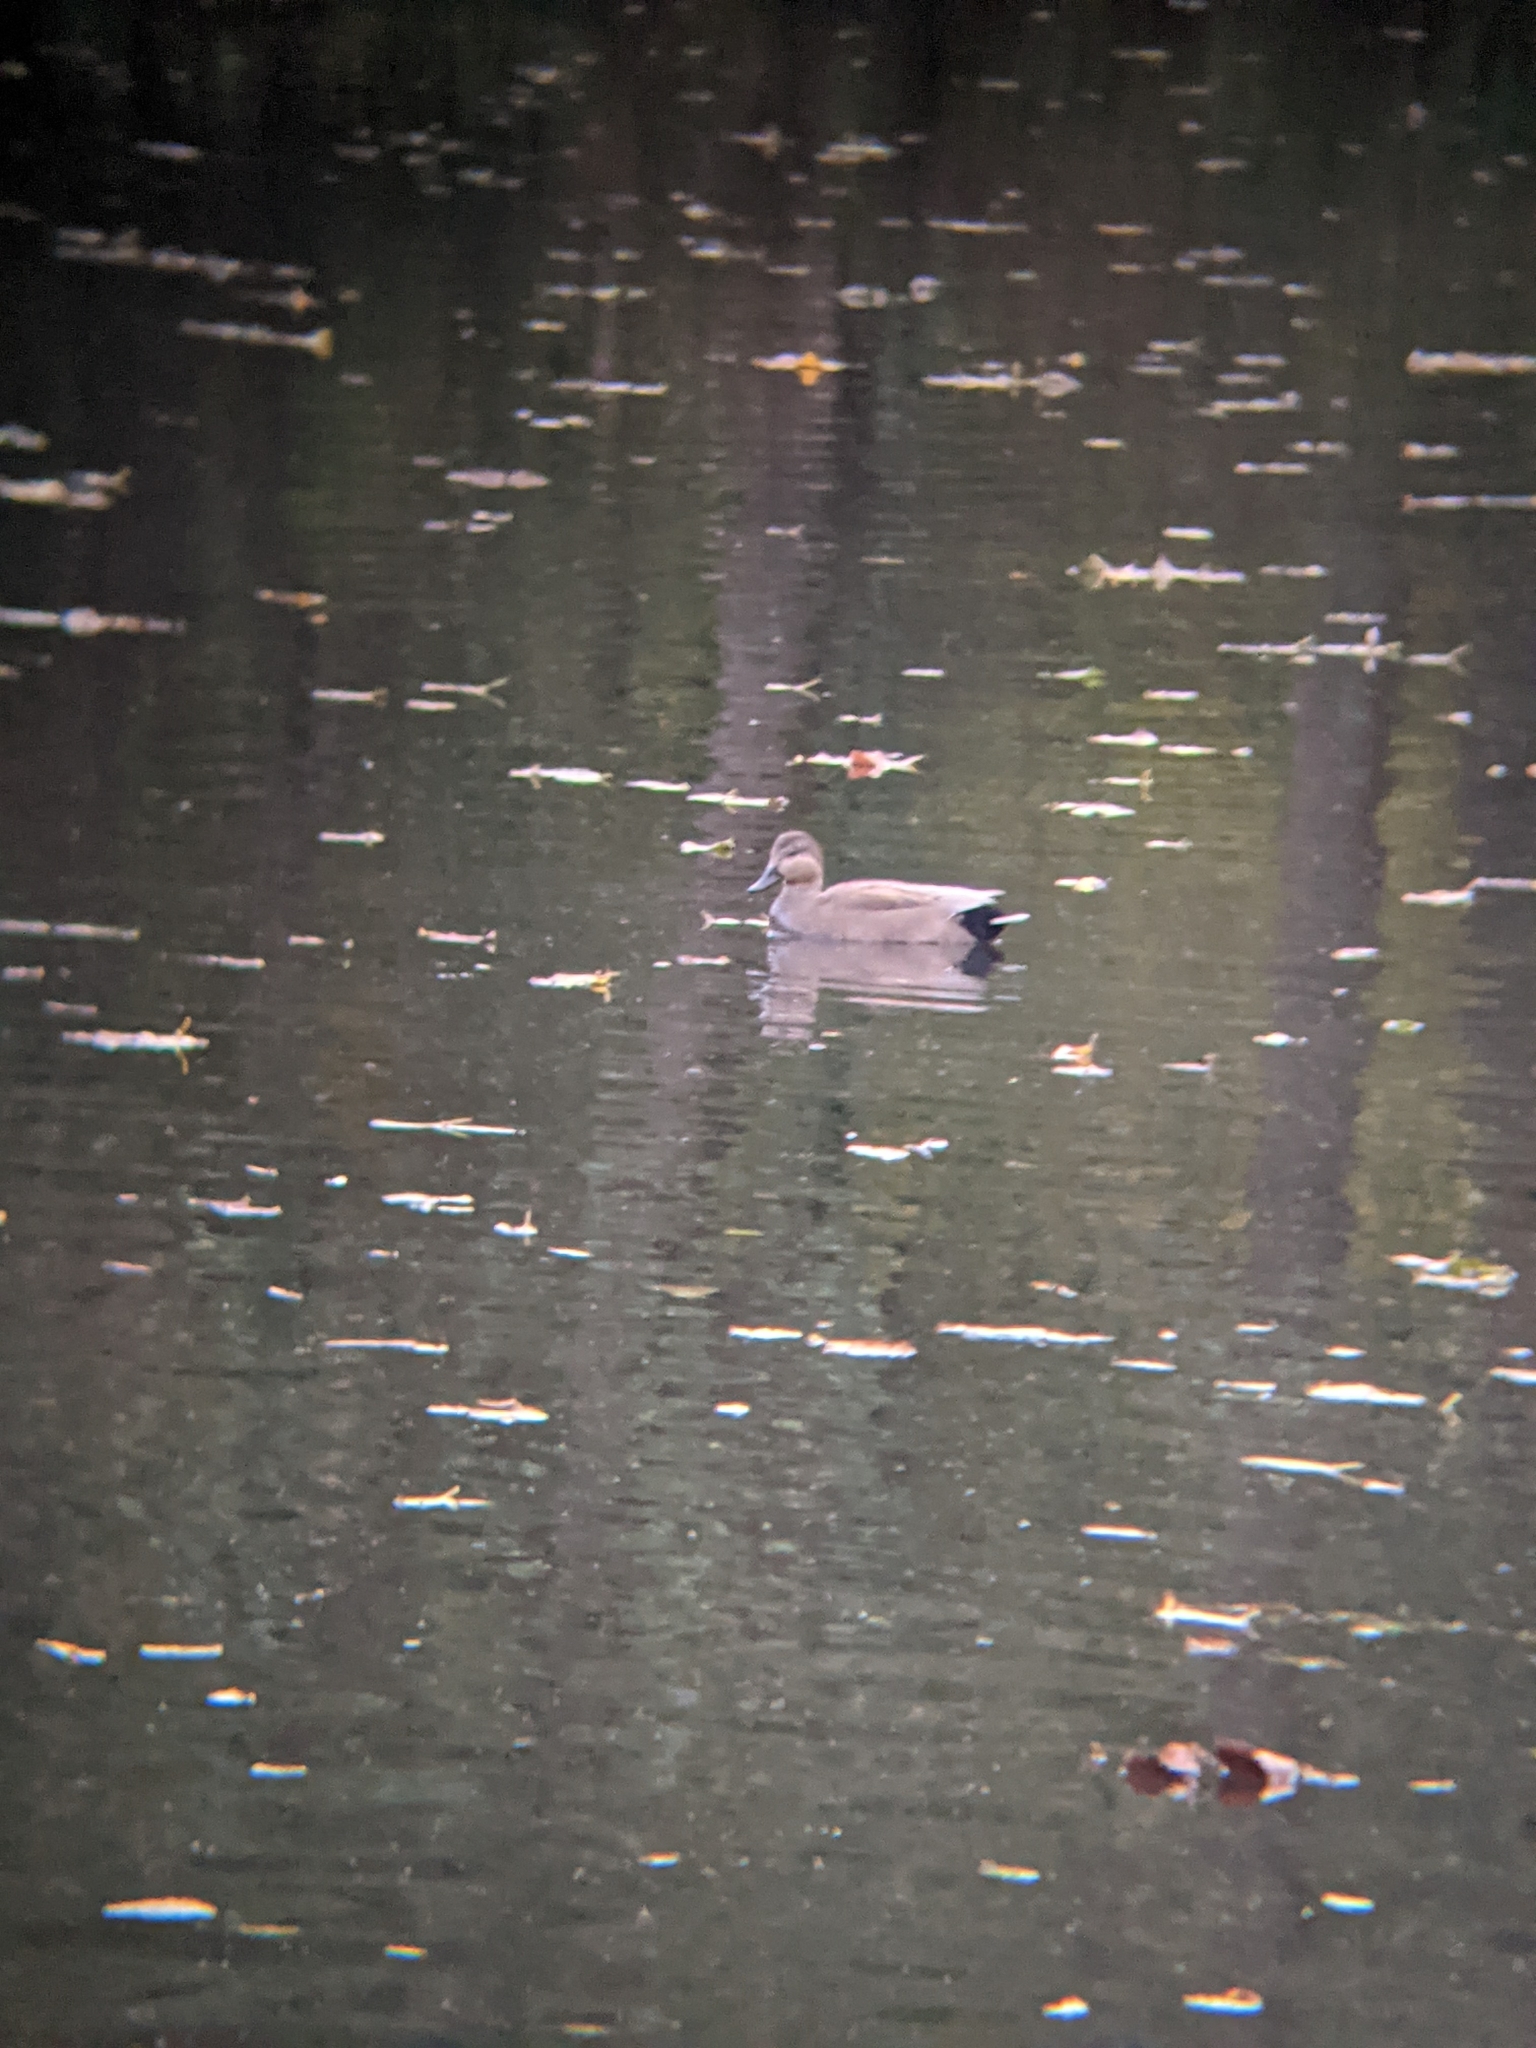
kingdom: Animalia
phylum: Chordata
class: Aves
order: Anseriformes
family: Anatidae
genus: Mareca
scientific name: Mareca strepera
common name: Gadwall
